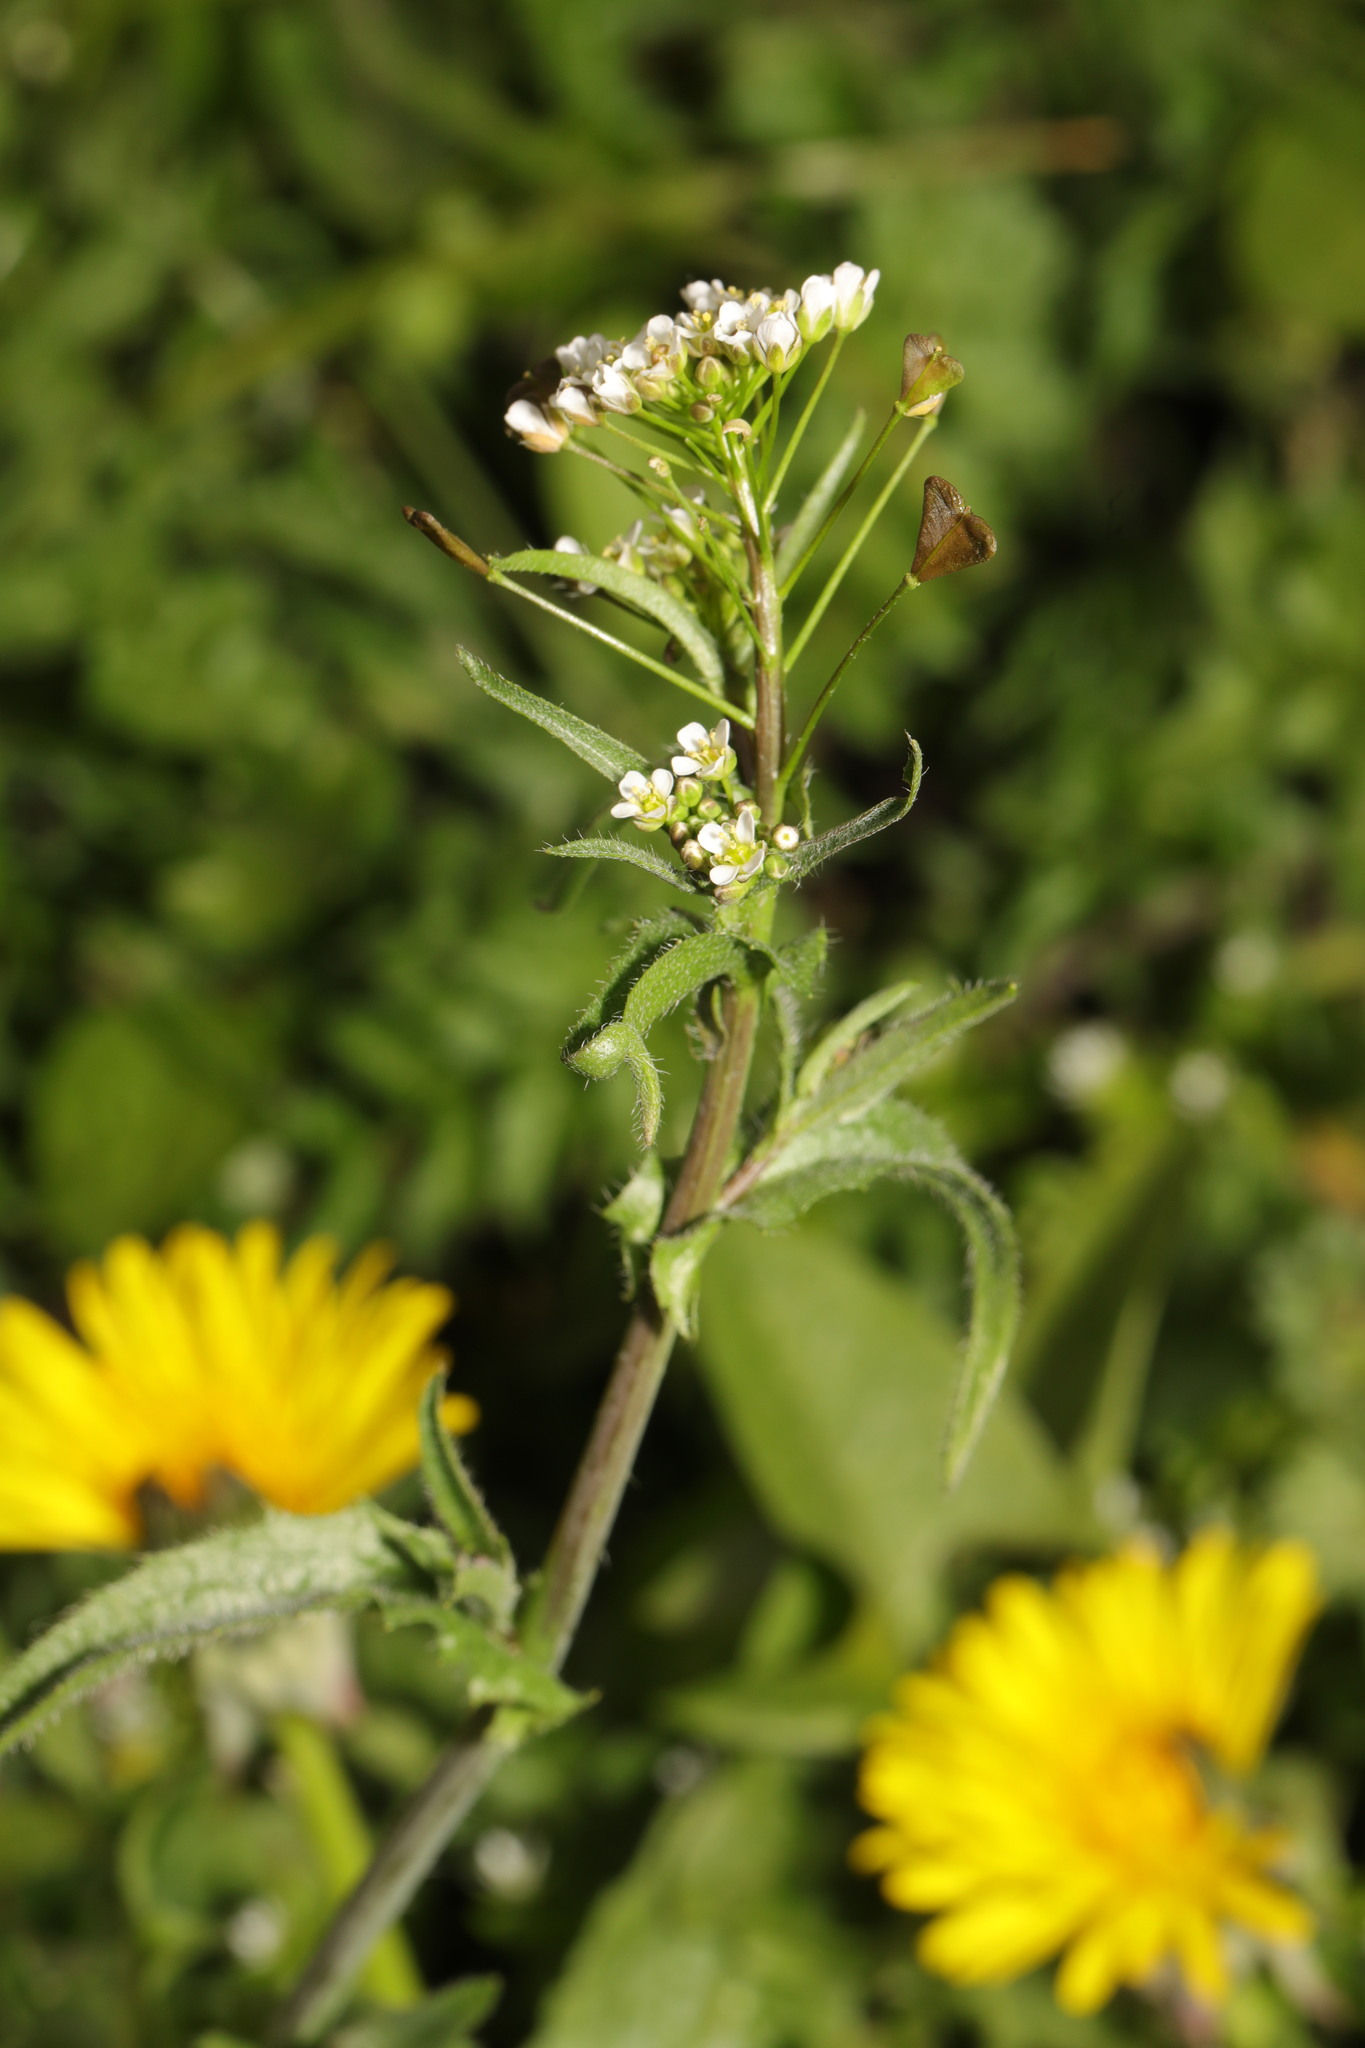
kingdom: Plantae
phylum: Tracheophyta
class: Magnoliopsida
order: Brassicales
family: Brassicaceae
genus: Capsella
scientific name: Capsella bursa-pastoris
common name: Shepherd's purse
